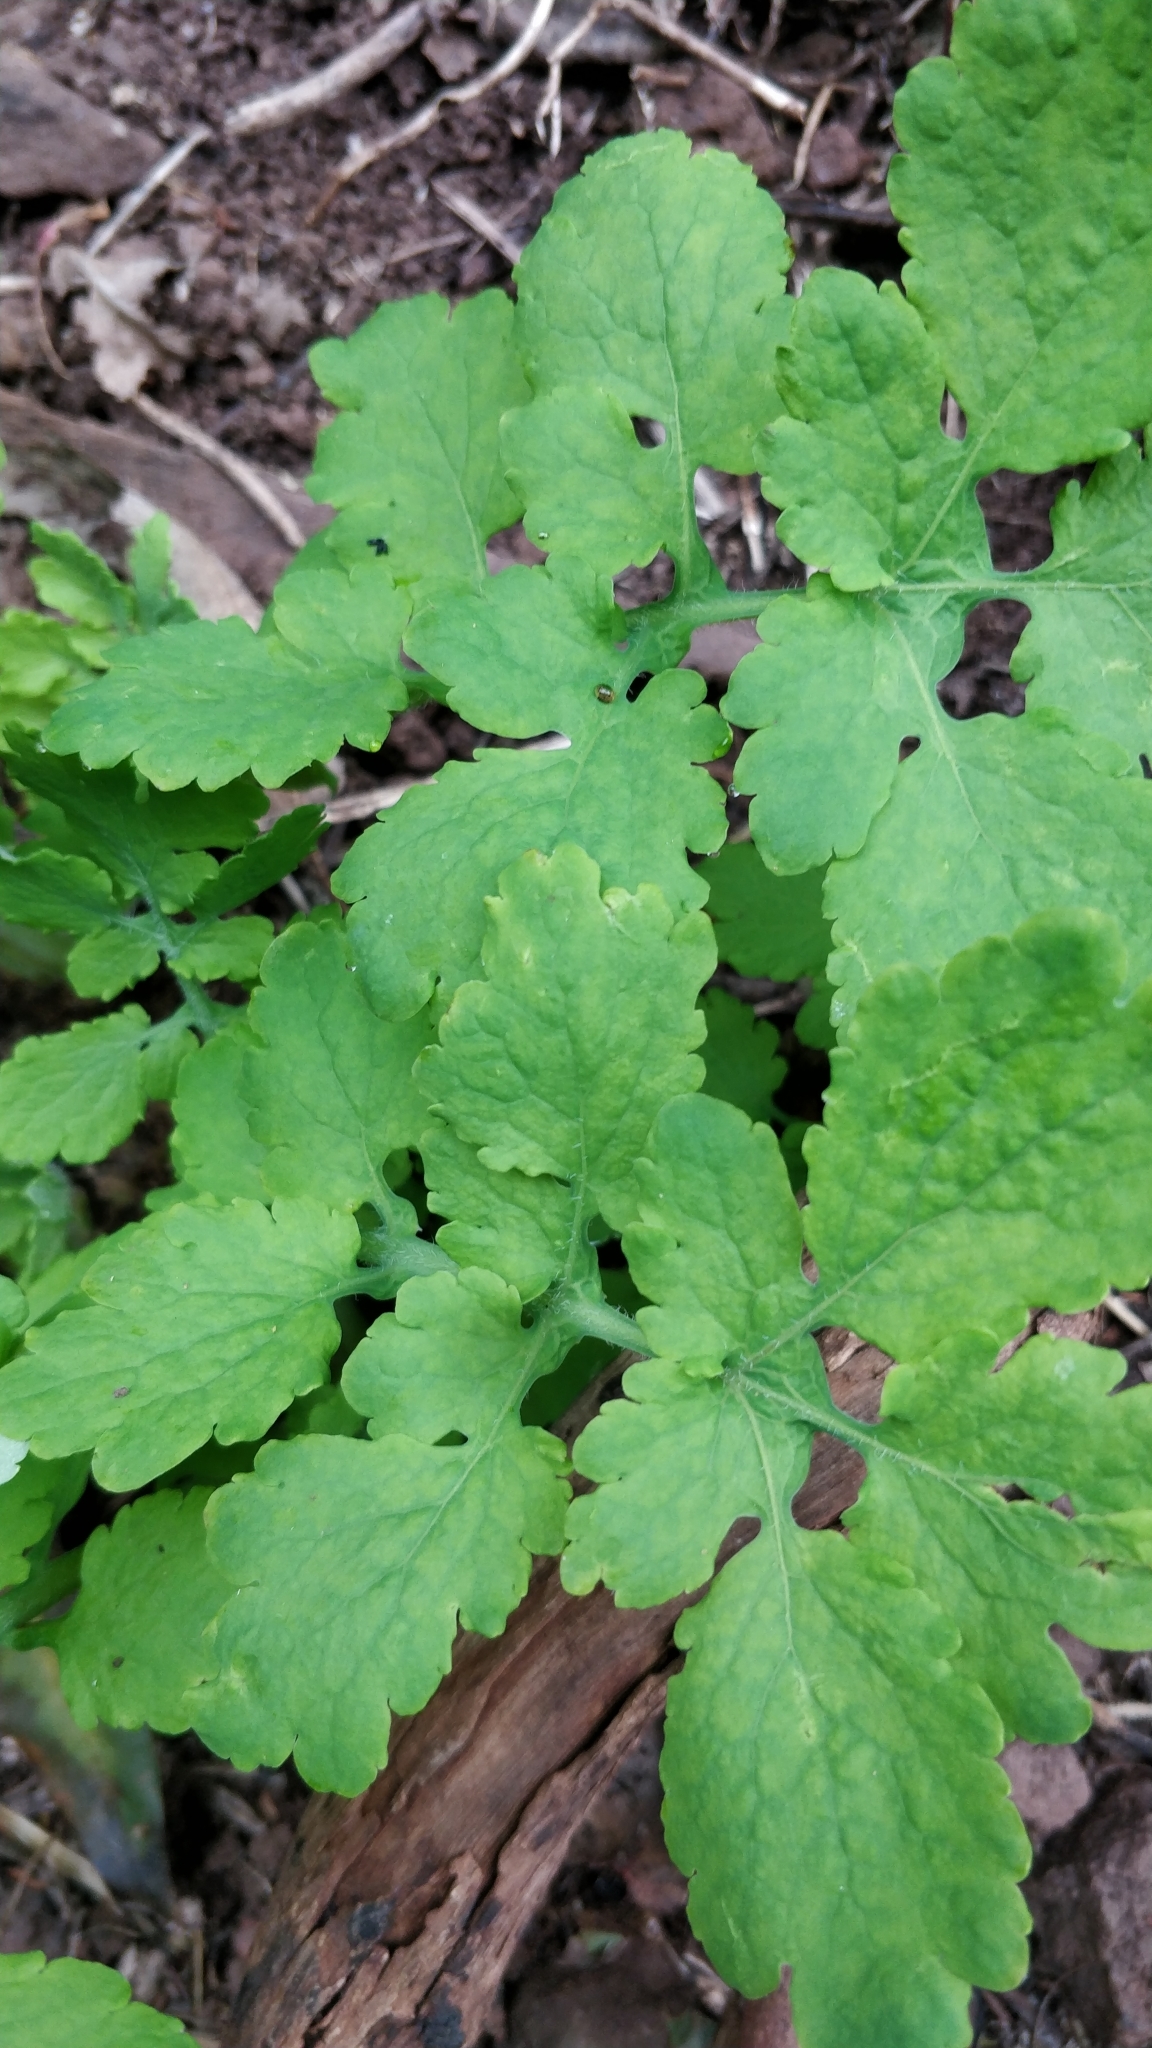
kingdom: Plantae
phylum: Tracheophyta
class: Magnoliopsida
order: Ranunculales
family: Papaveraceae
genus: Chelidonium
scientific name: Chelidonium majus
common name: Greater celandine
